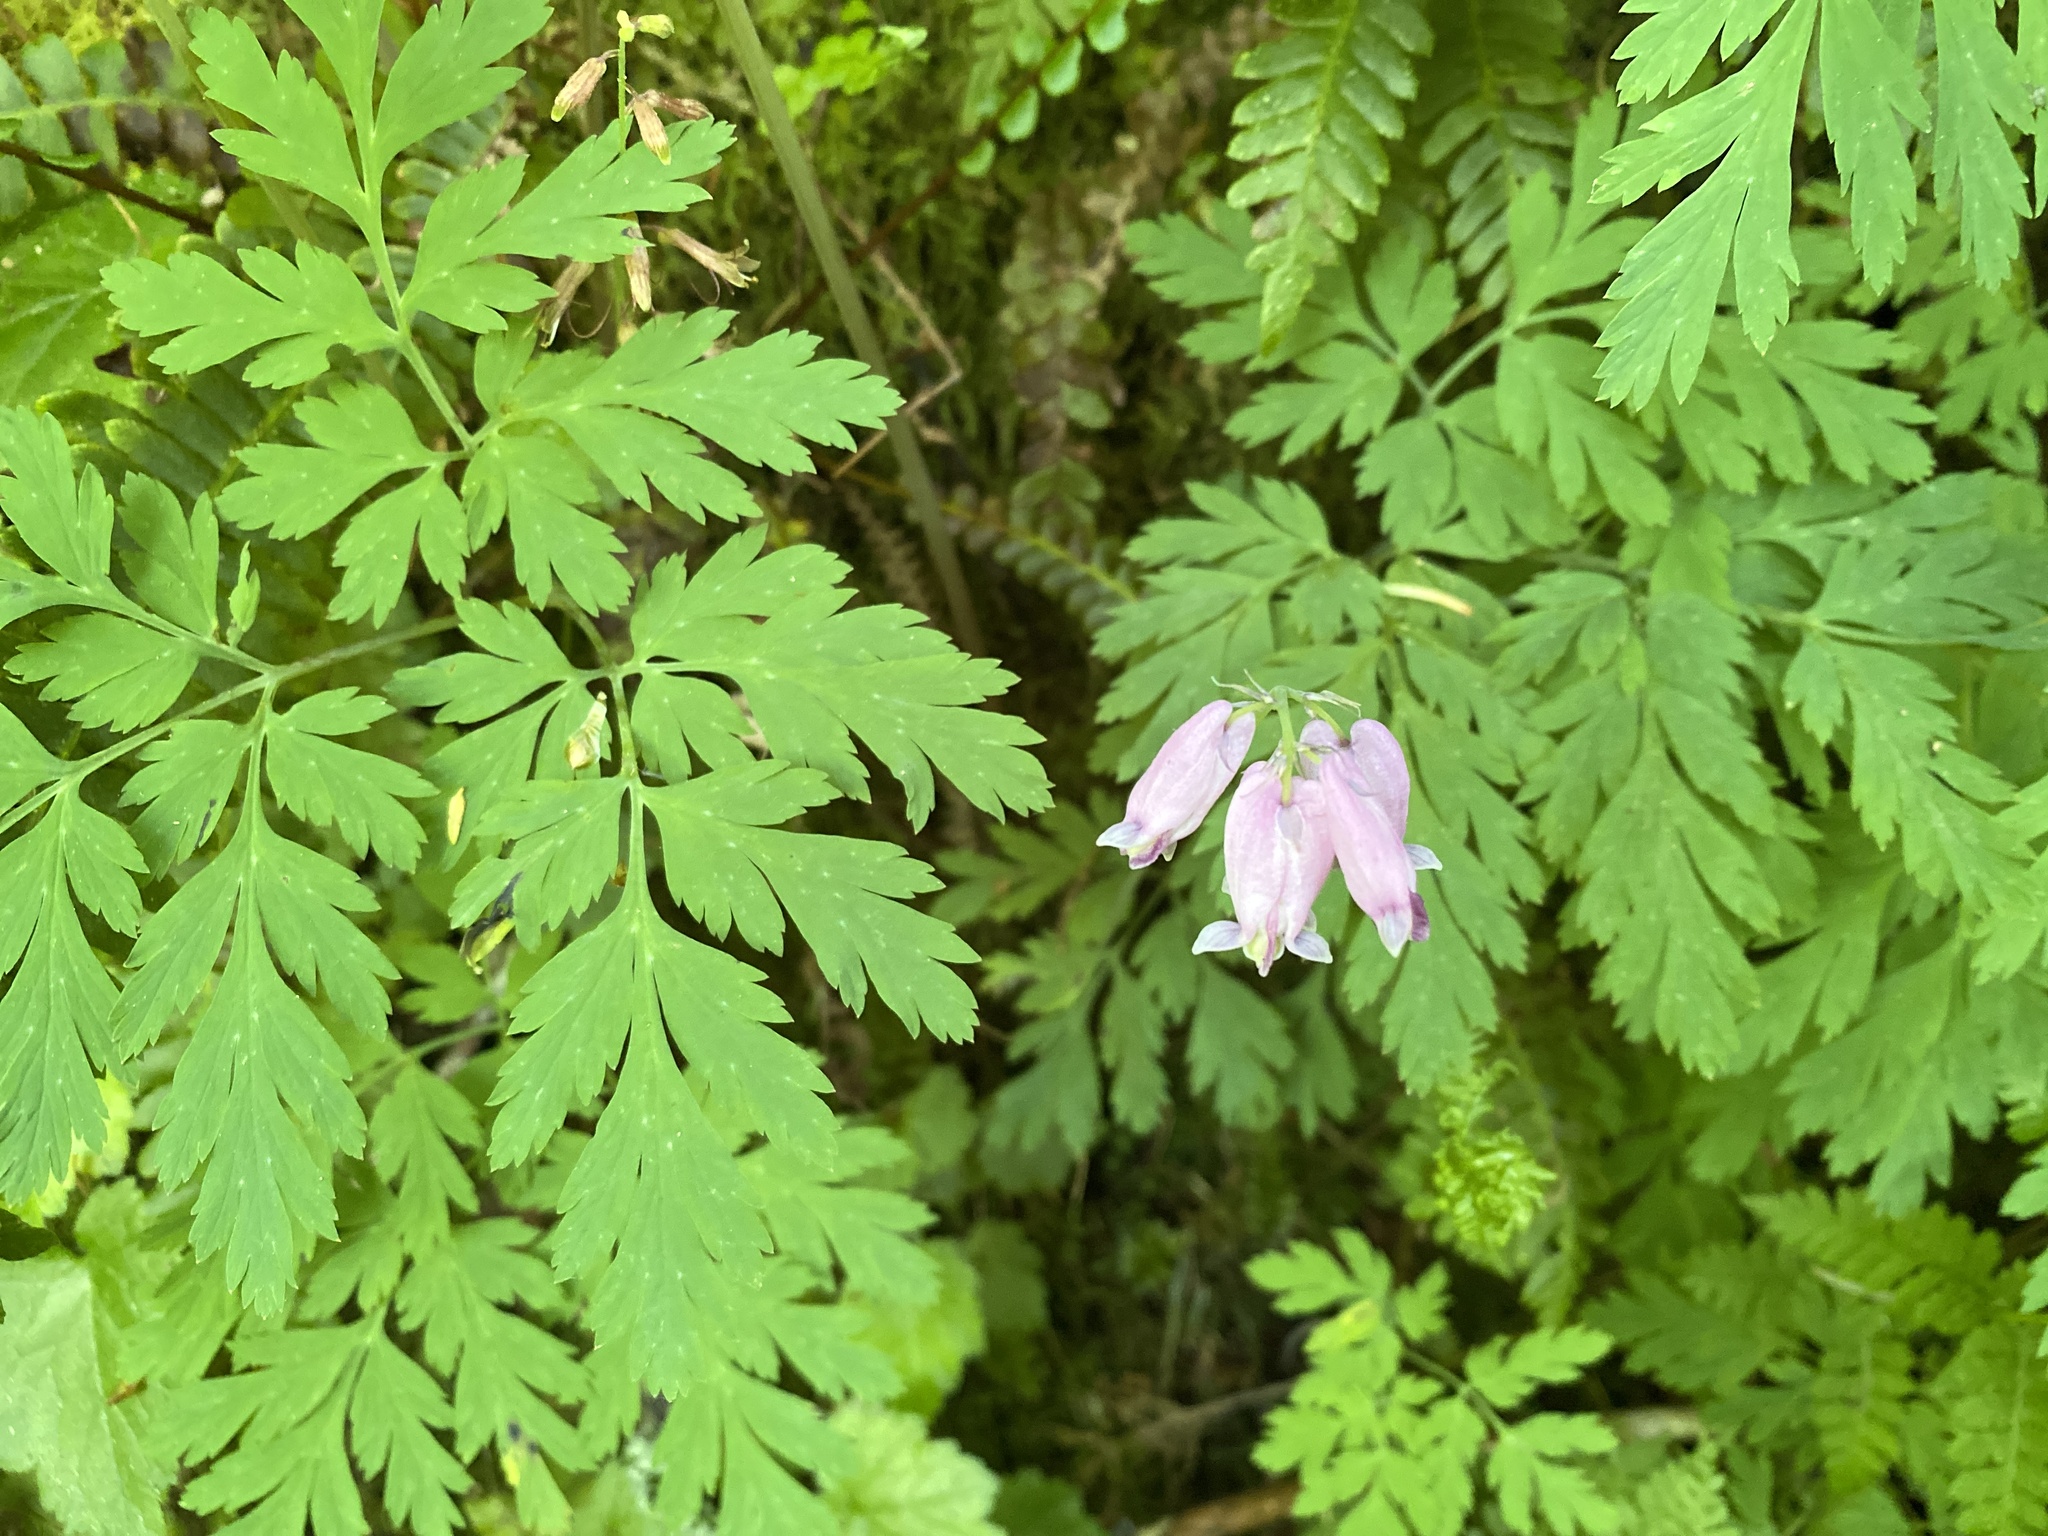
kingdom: Plantae
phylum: Tracheophyta
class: Magnoliopsida
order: Ranunculales
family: Papaveraceae
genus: Dicentra
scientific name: Dicentra formosa
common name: Bleeding-heart
